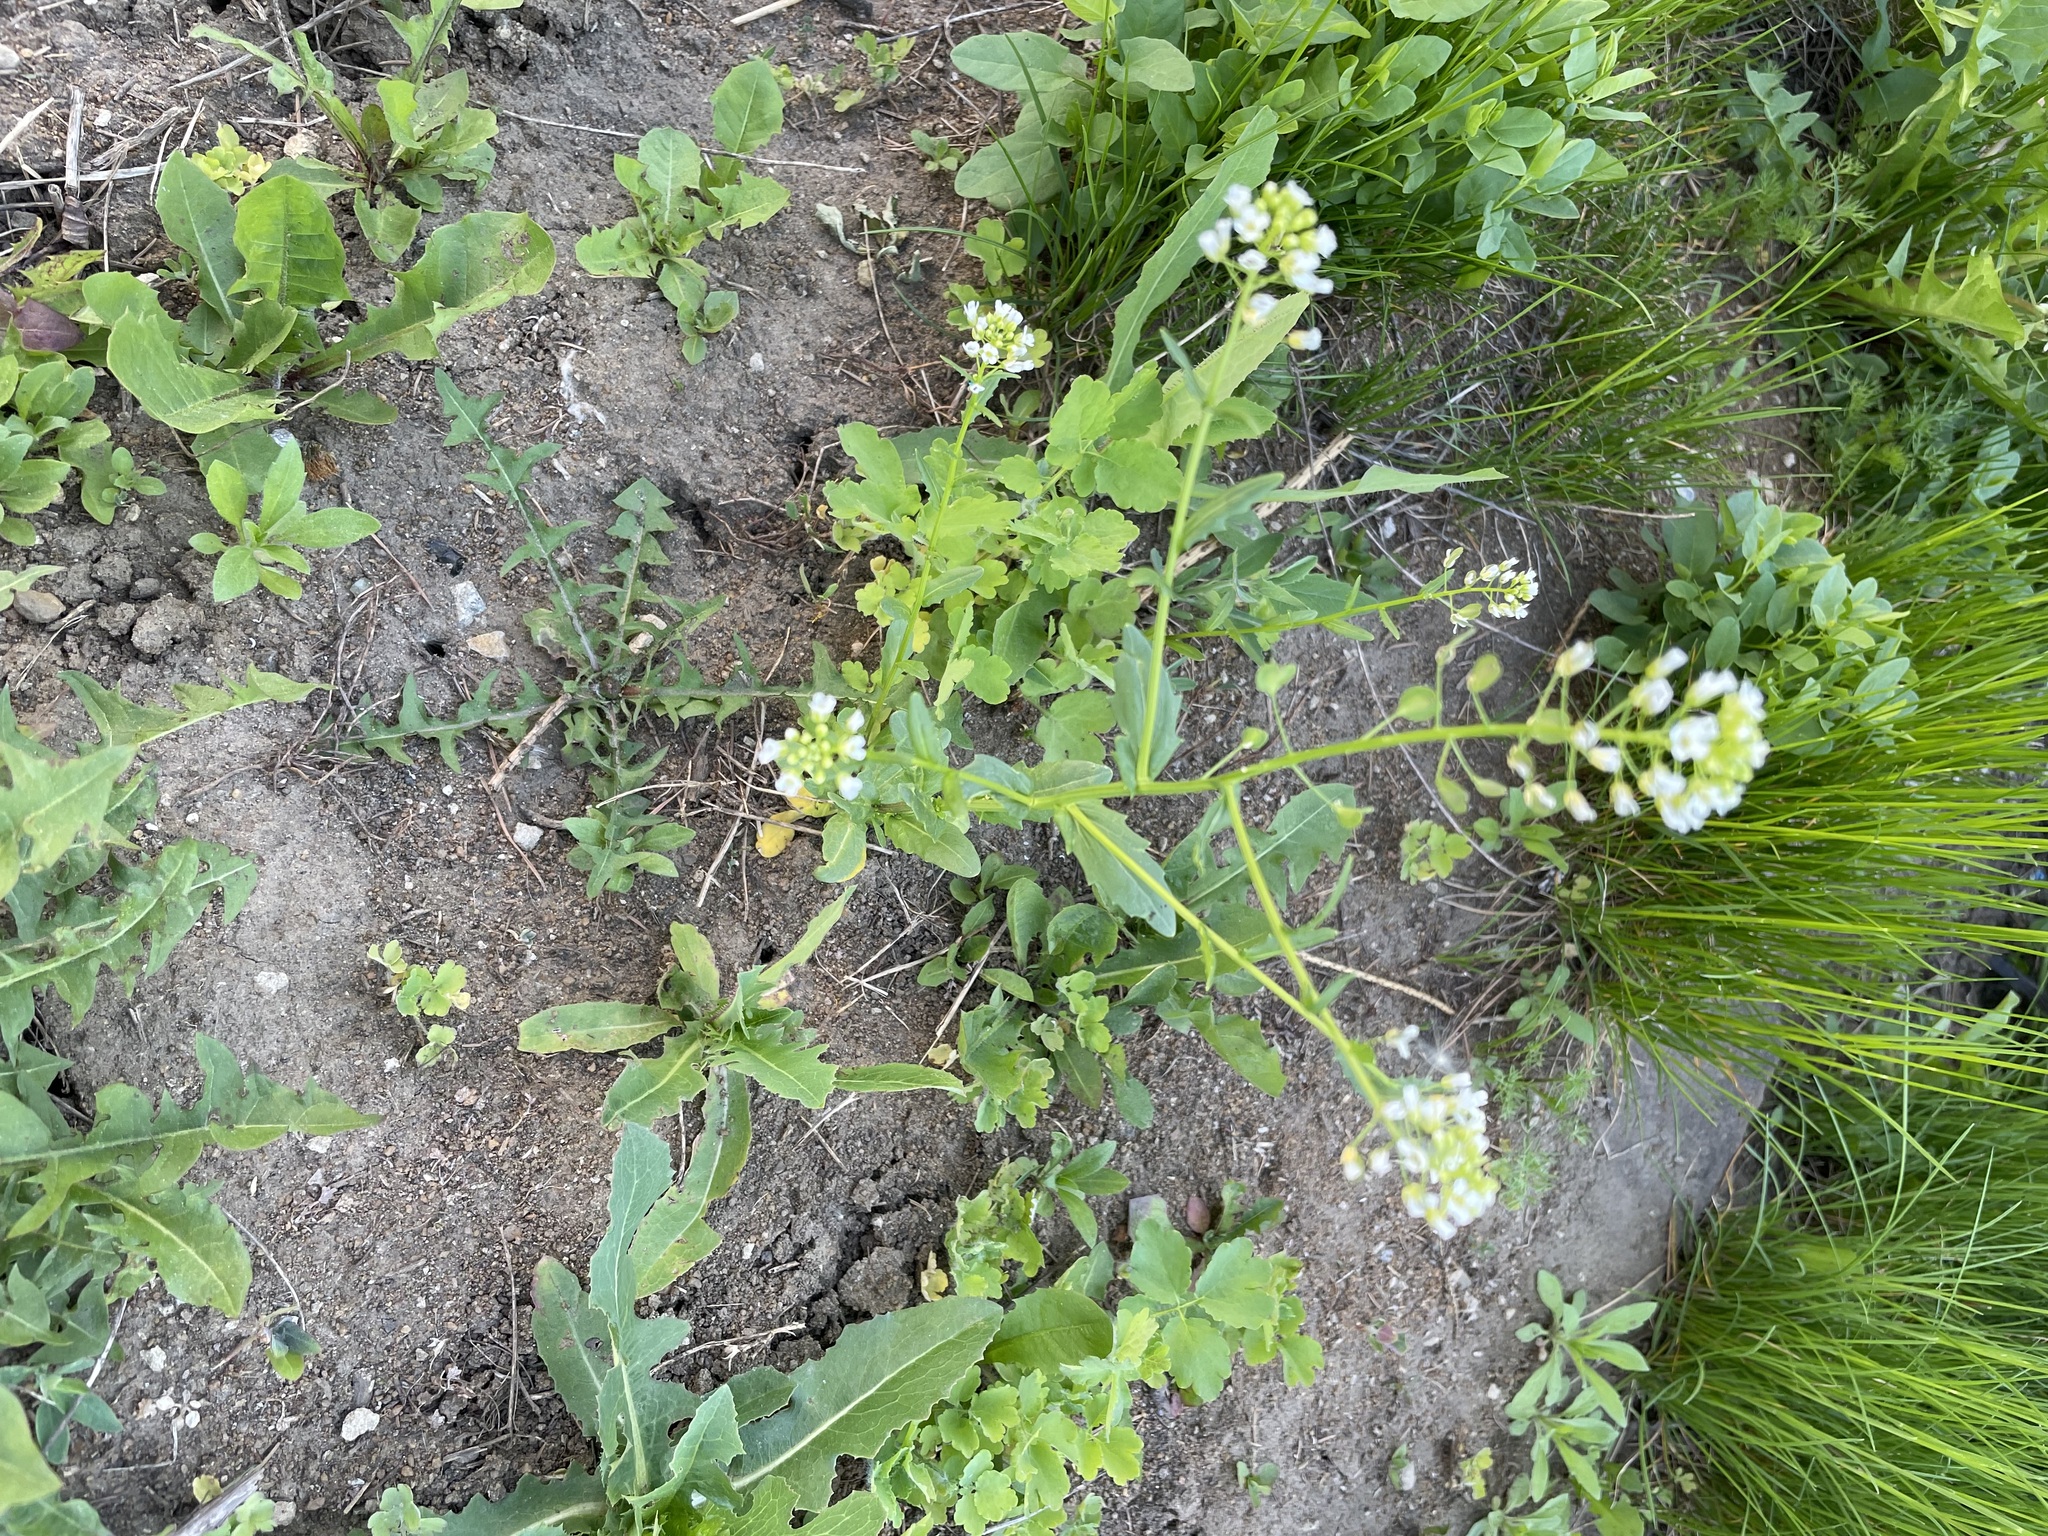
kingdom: Plantae
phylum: Tracheophyta
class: Magnoliopsida
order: Brassicales
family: Brassicaceae
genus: Thlaspi
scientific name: Thlaspi arvense
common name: Field pennycress
